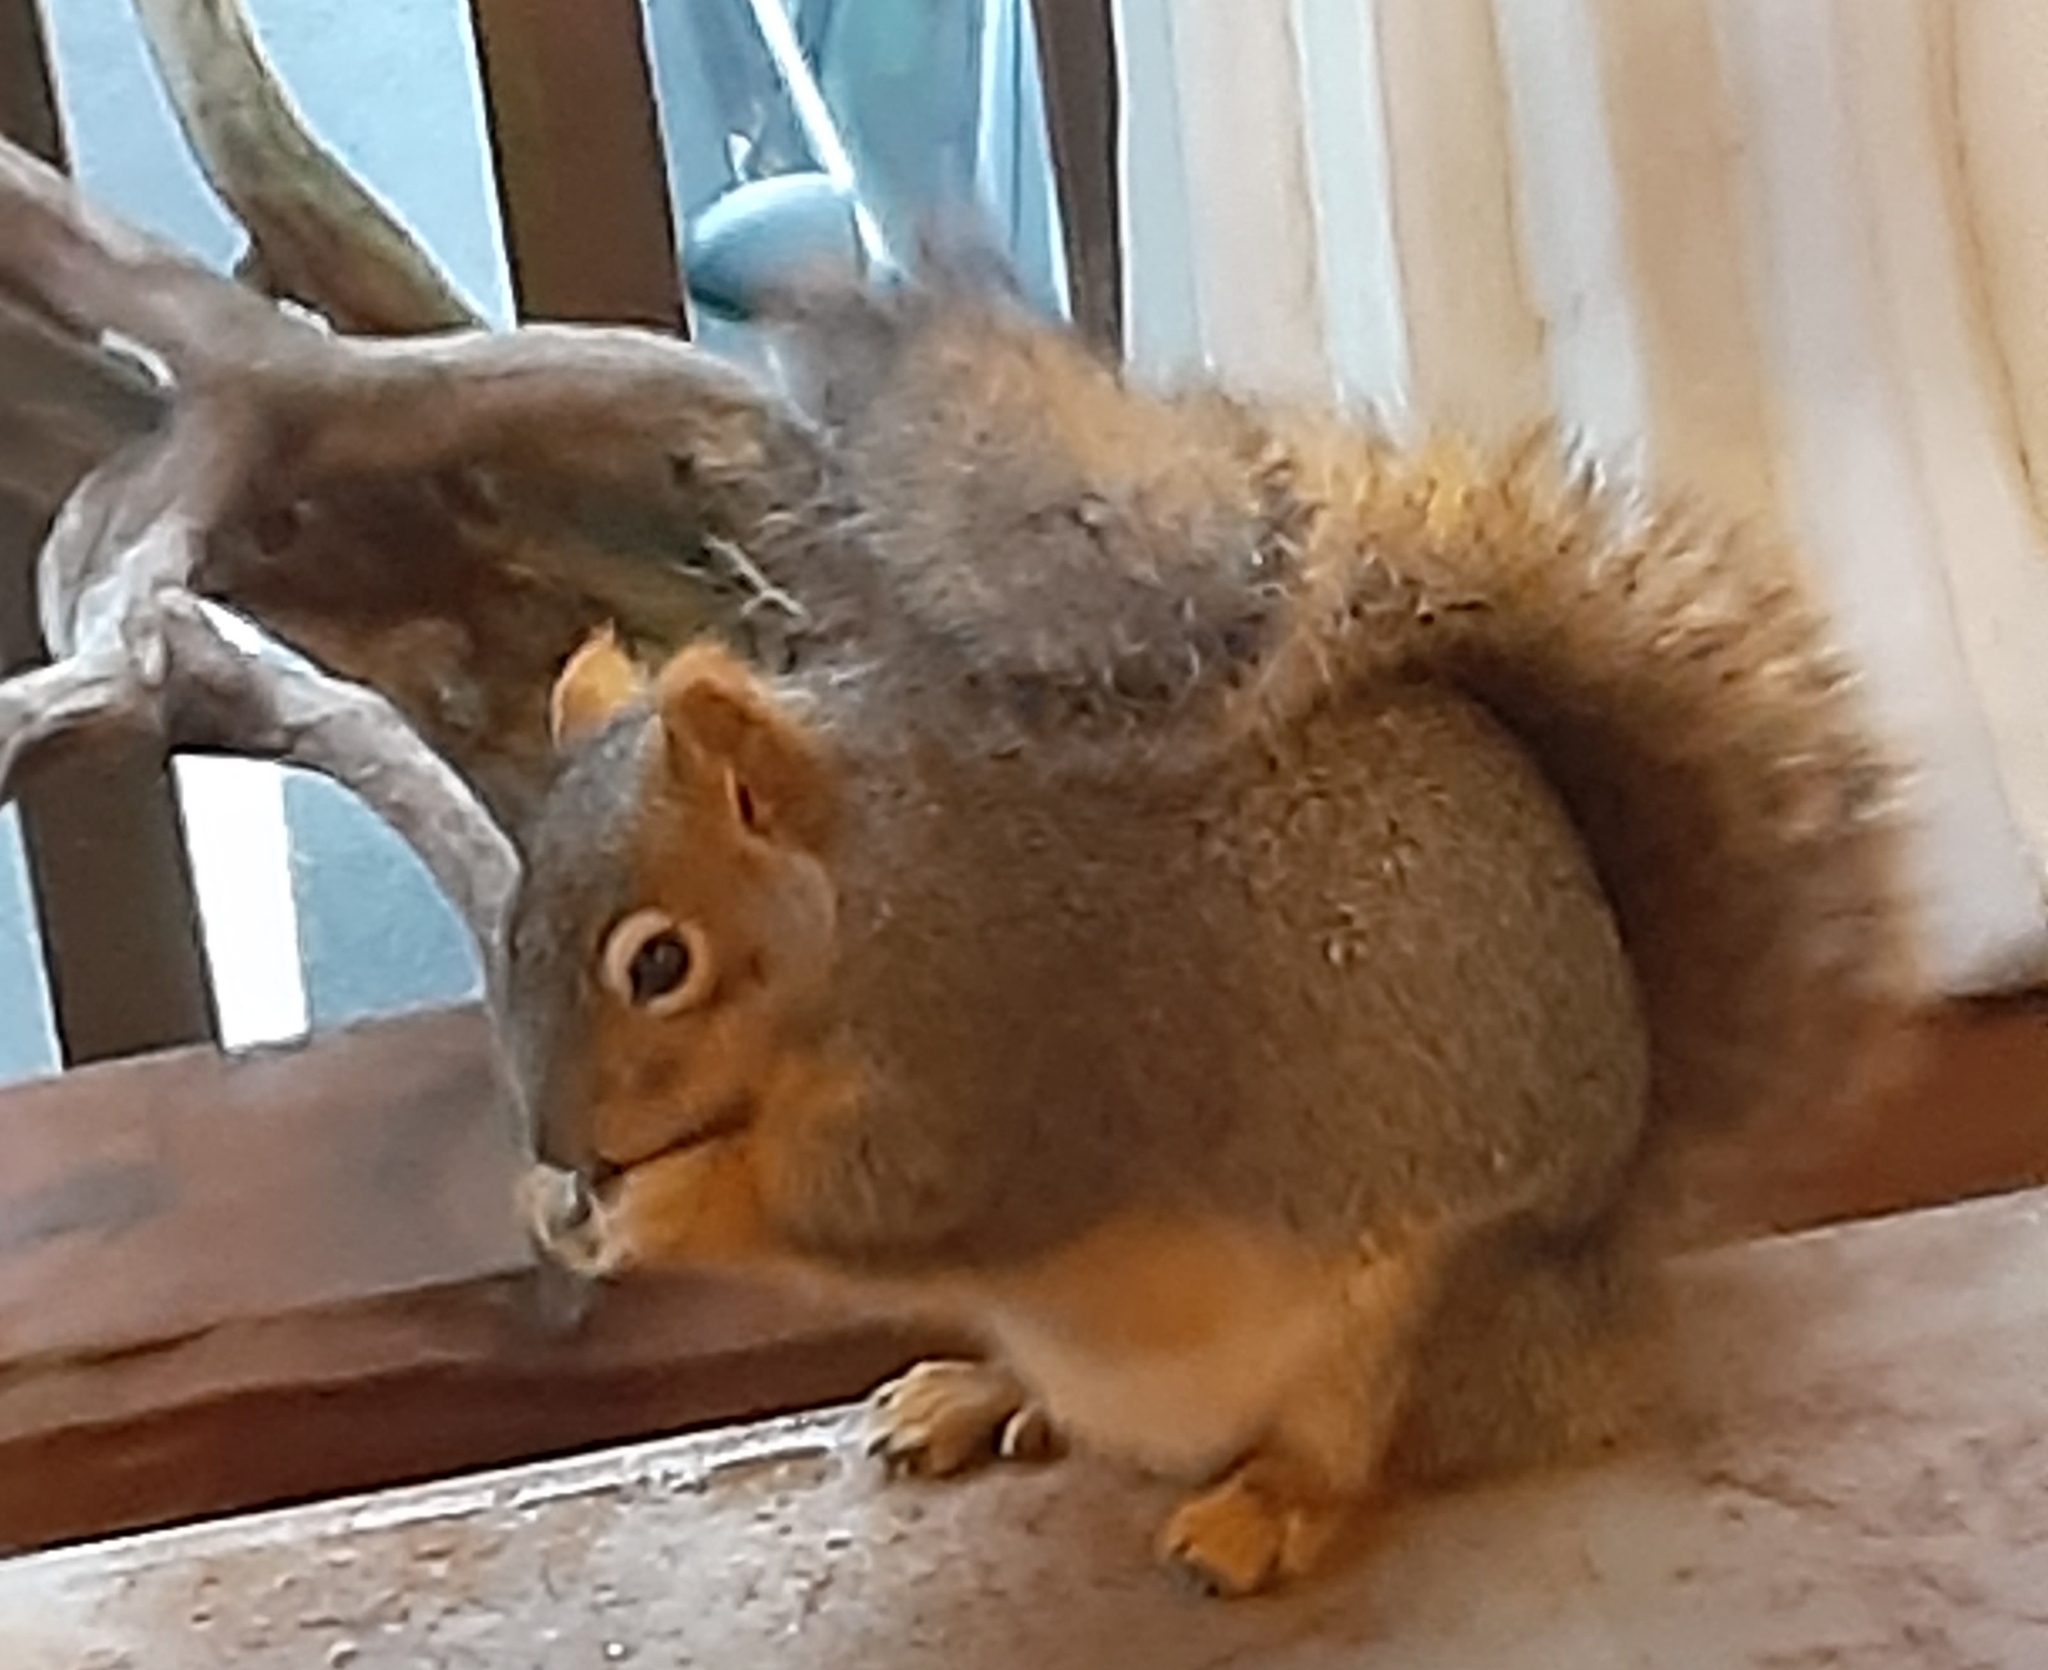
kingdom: Animalia
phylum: Chordata
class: Mammalia
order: Rodentia
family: Sciuridae
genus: Sciurus
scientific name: Sciurus niger
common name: Fox squirrel
